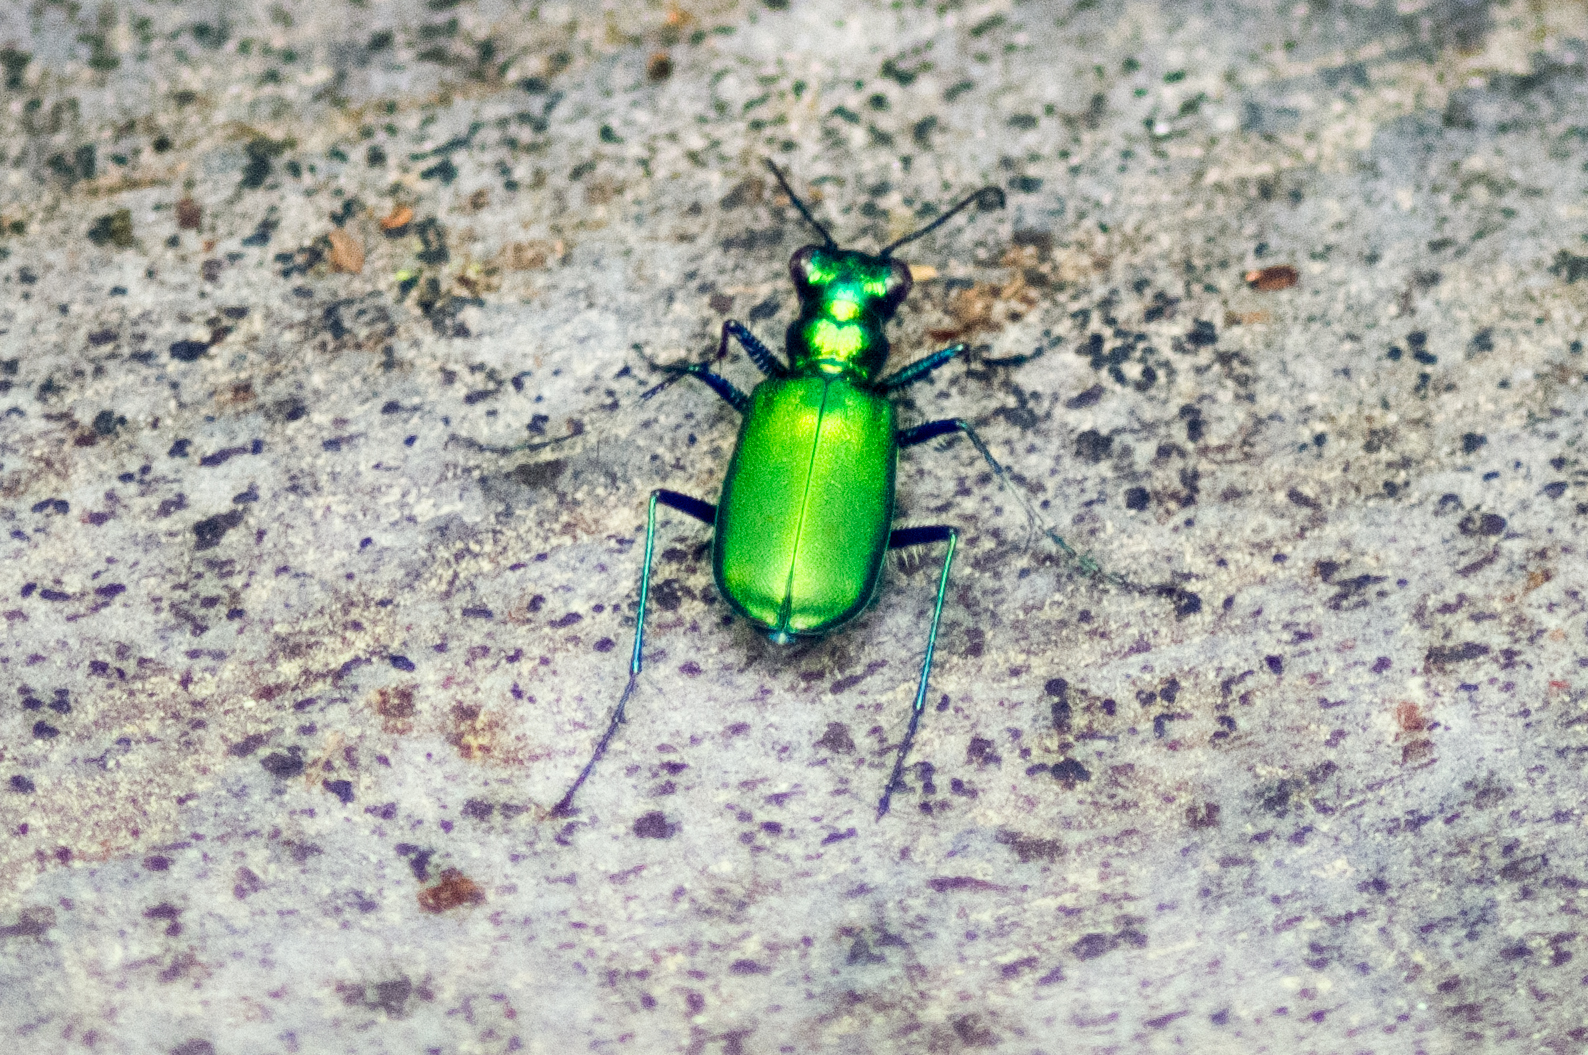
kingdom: Animalia
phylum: Arthropoda
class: Insecta
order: Coleoptera
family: Carabidae
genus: Cicindela
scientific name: Cicindela sexguttata
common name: Six-spotted tiger beetle
